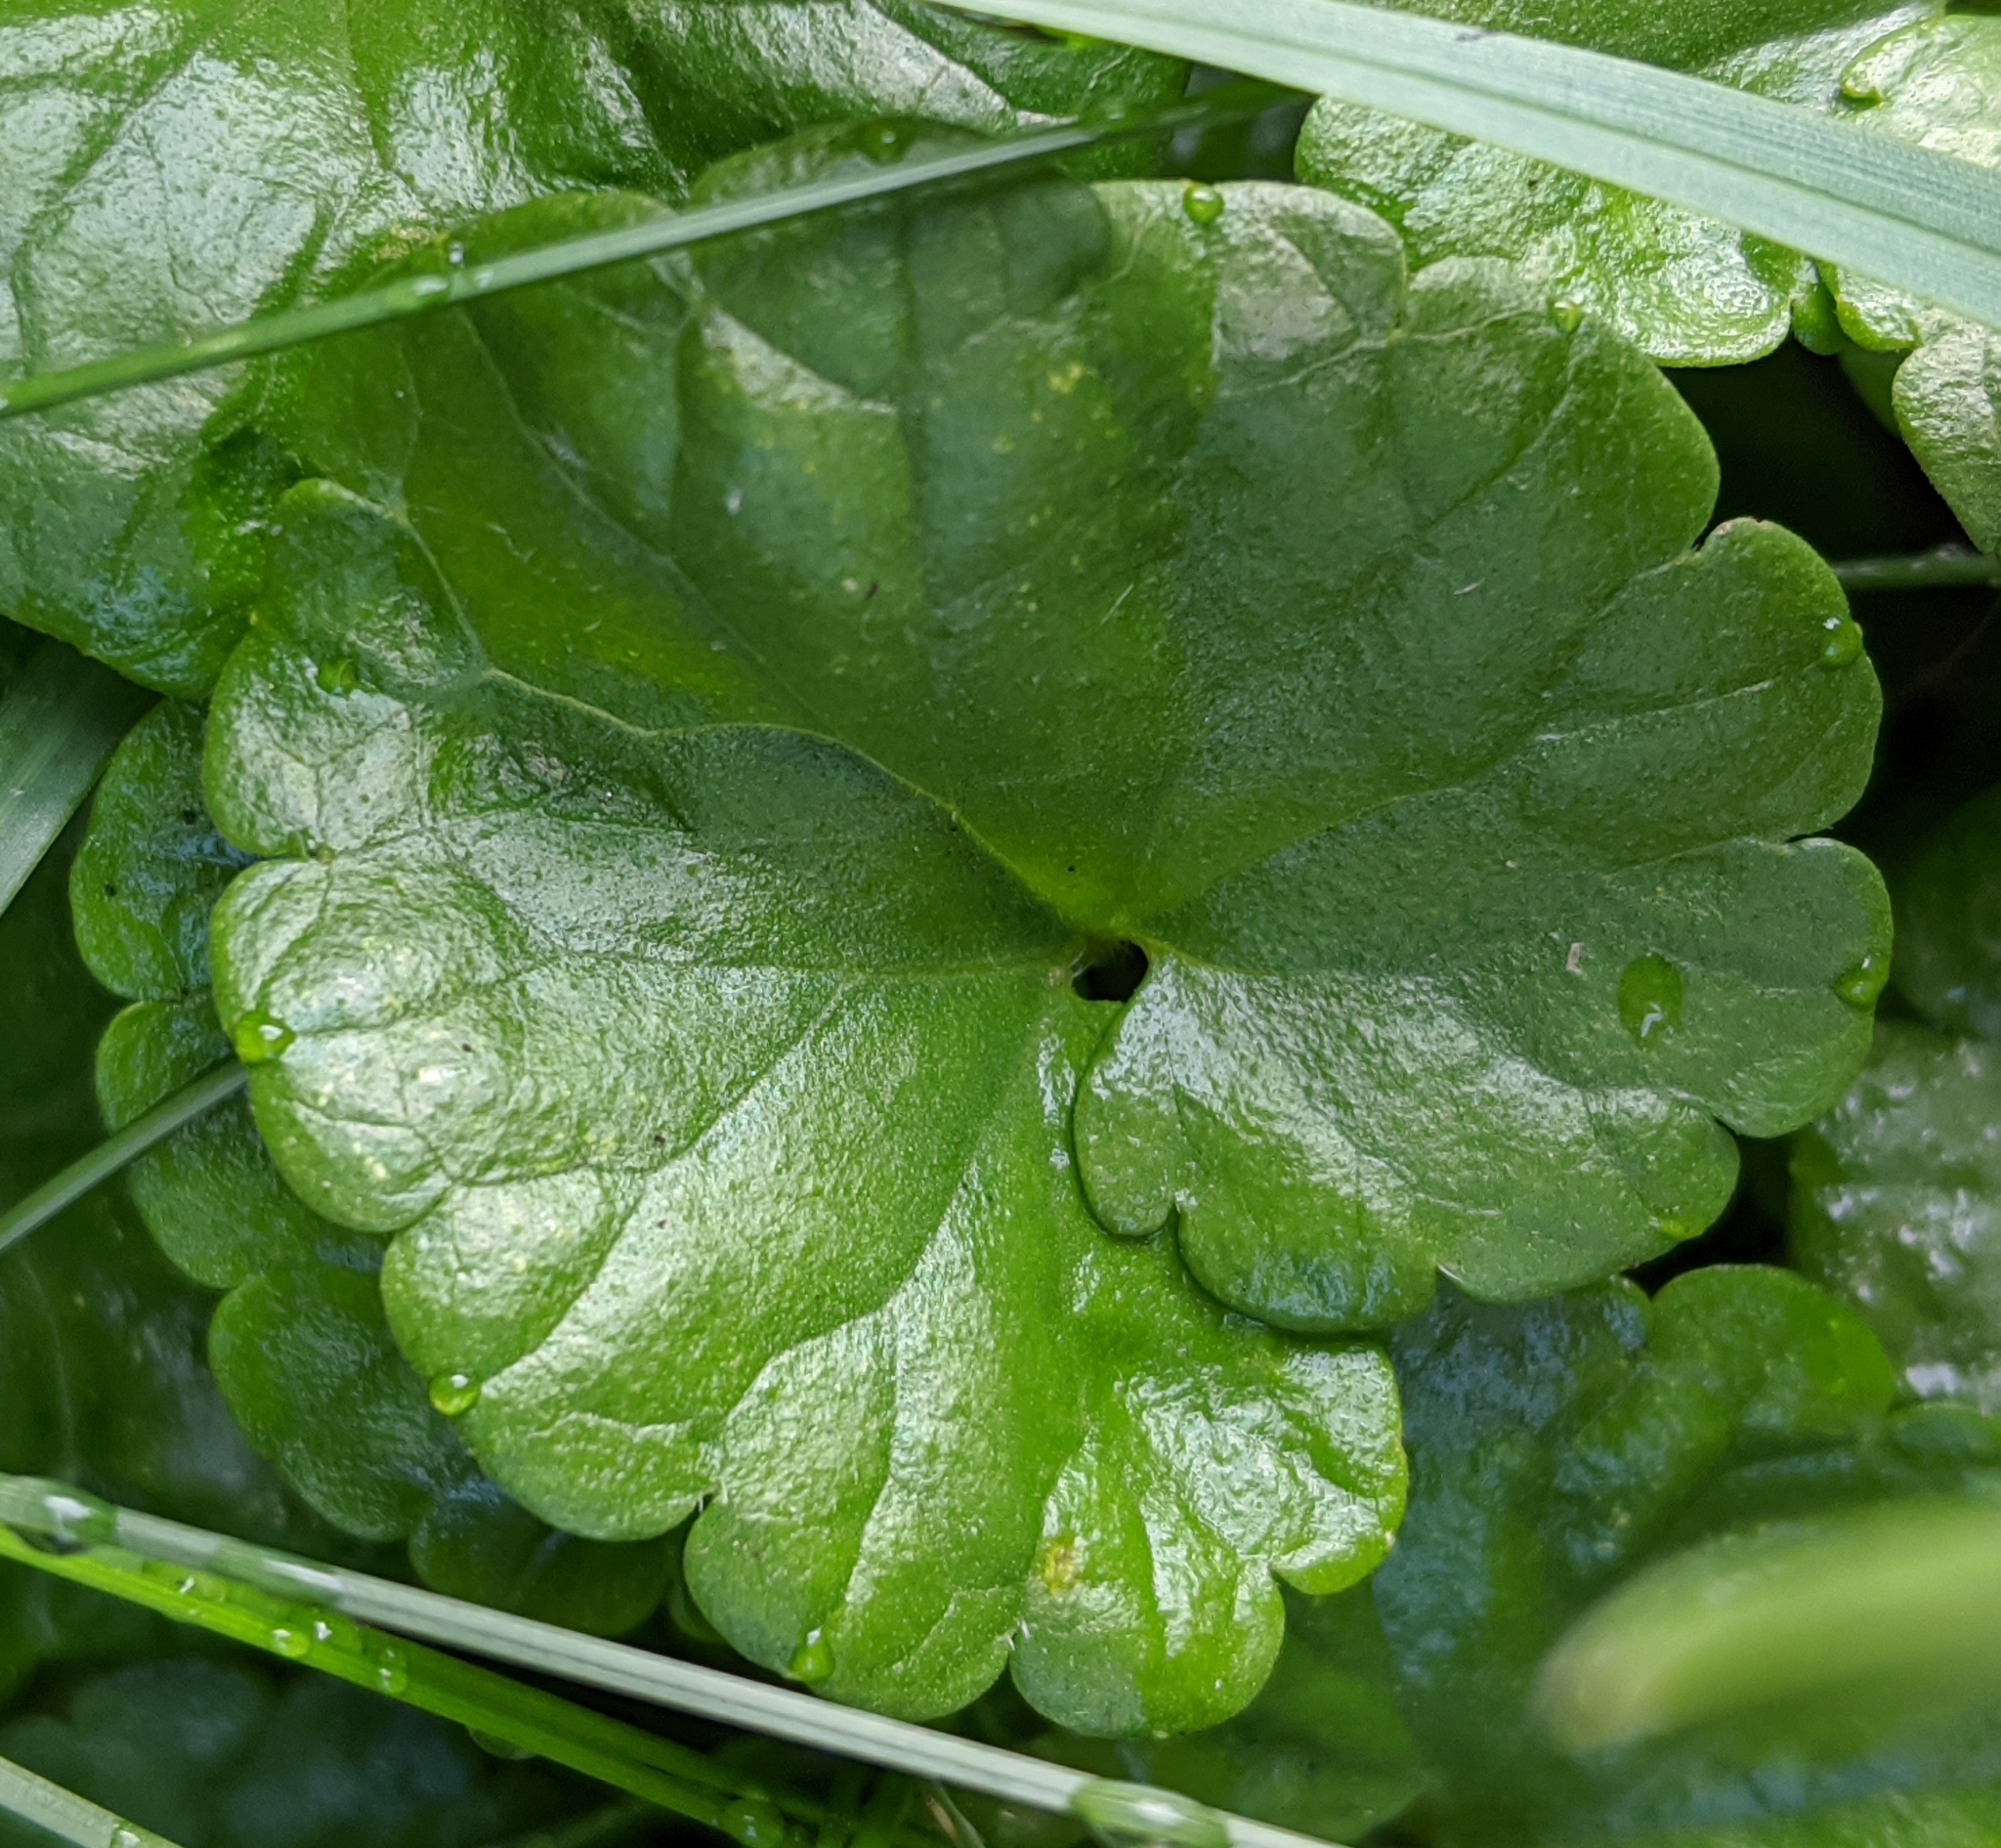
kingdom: Plantae
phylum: Tracheophyta
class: Magnoliopsida
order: Lamiales
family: Lamiaceae
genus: Glechoma
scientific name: Glechoma hederacea
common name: Ground ivy
